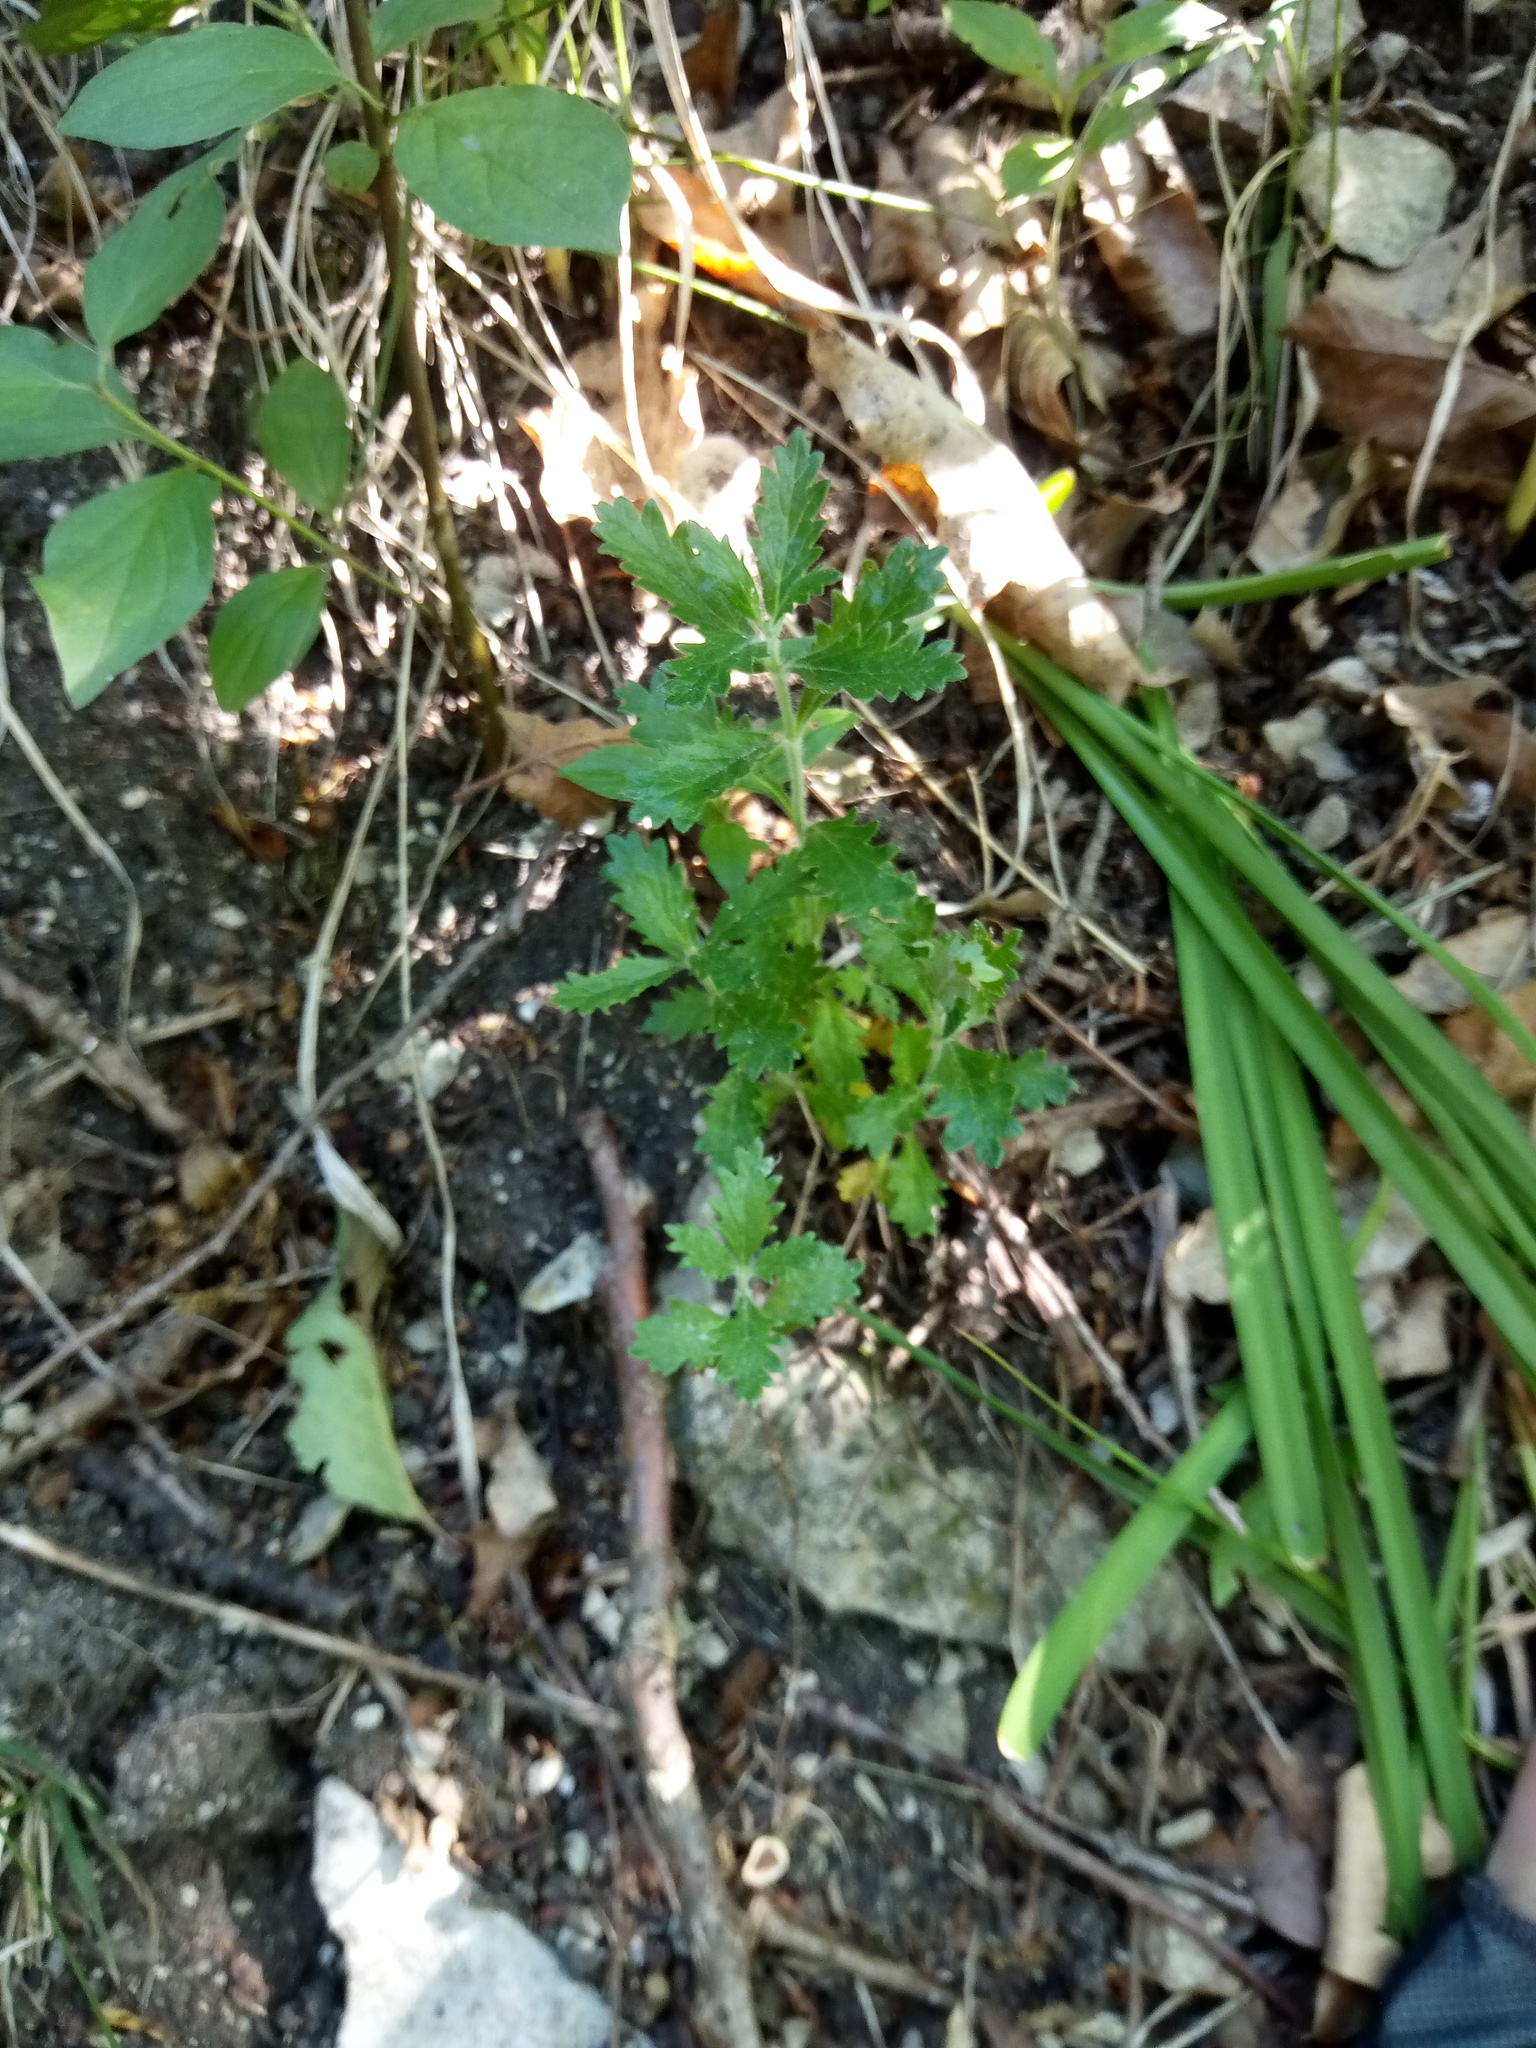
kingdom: Plantae
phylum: Tracheophyta
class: Magnoliopsida
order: Lamiales
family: Lamiaceae
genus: Teucrium
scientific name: Teucrium chamaedrys
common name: Wall germander
